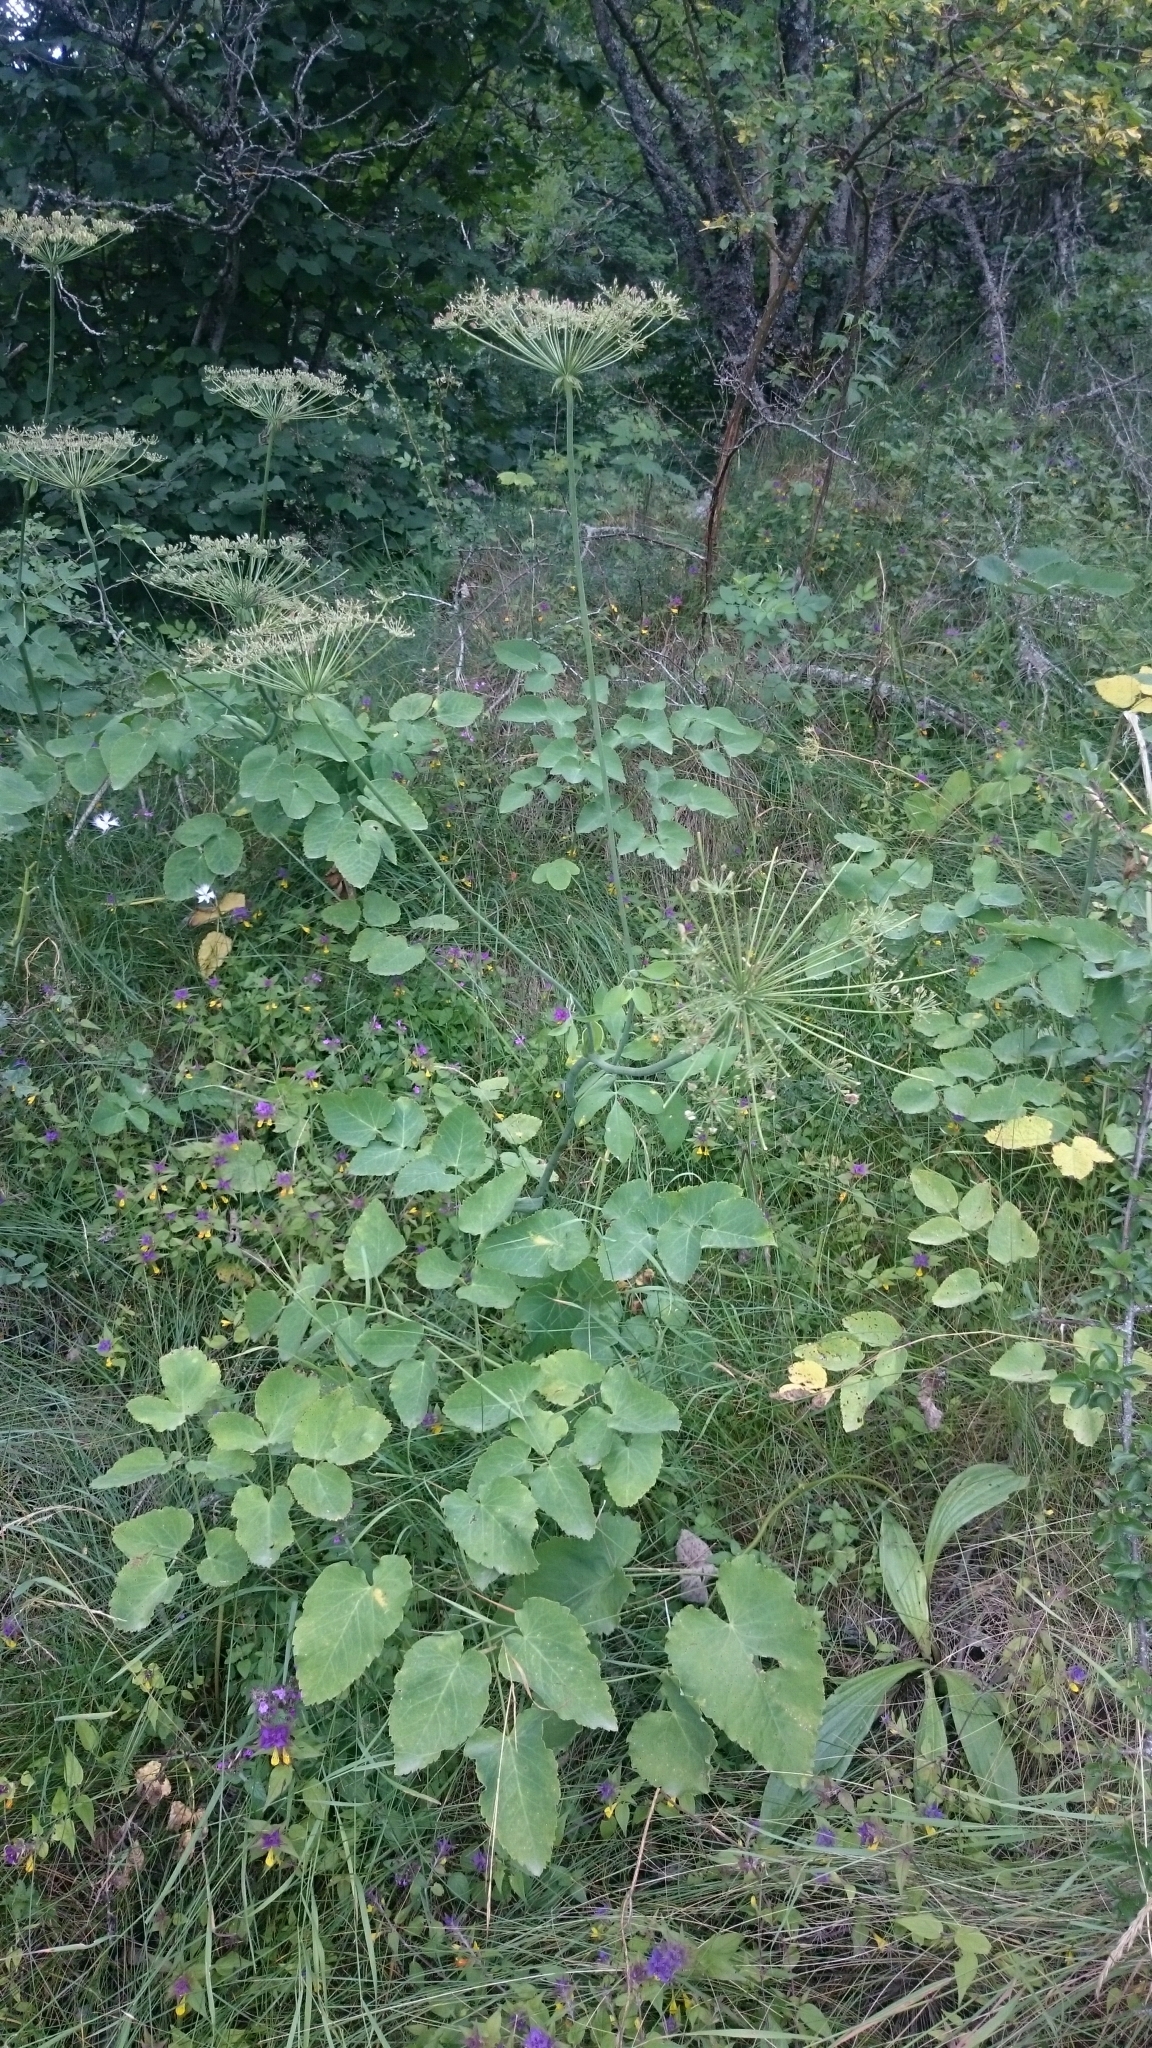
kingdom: Plantae
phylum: Tracheophyta
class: Magnoliopsida
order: Apiales
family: Apiaceae
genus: Laserpitium
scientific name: Laserpitium latifolium
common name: Broadleaf sermountain
